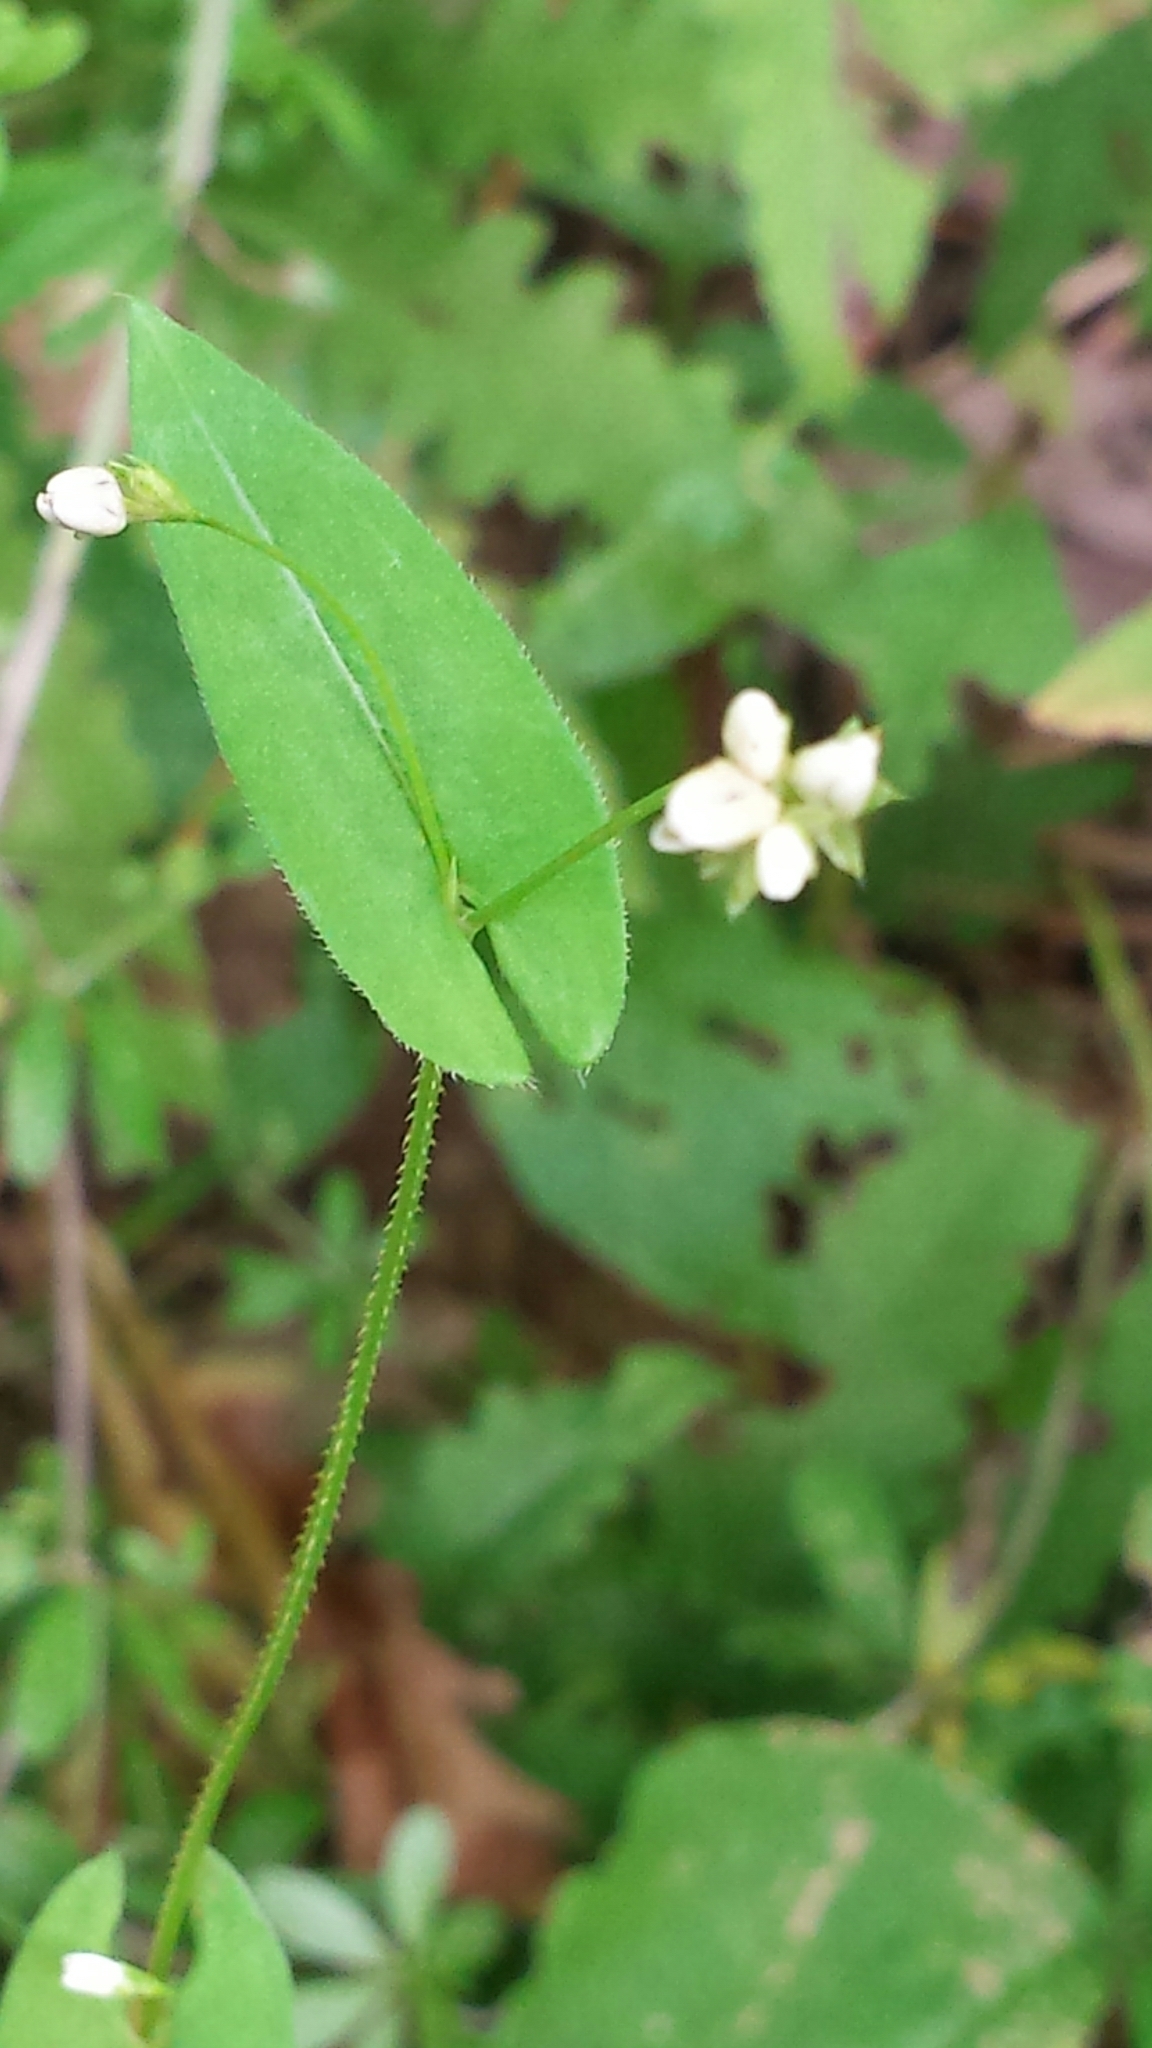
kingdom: Plantae
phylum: Tracheophyta
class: Magnoliopsida
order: Caryophyllales
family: Polygonaceae
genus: Persicaria
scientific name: Persicaria sagittata
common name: American tearthumb
